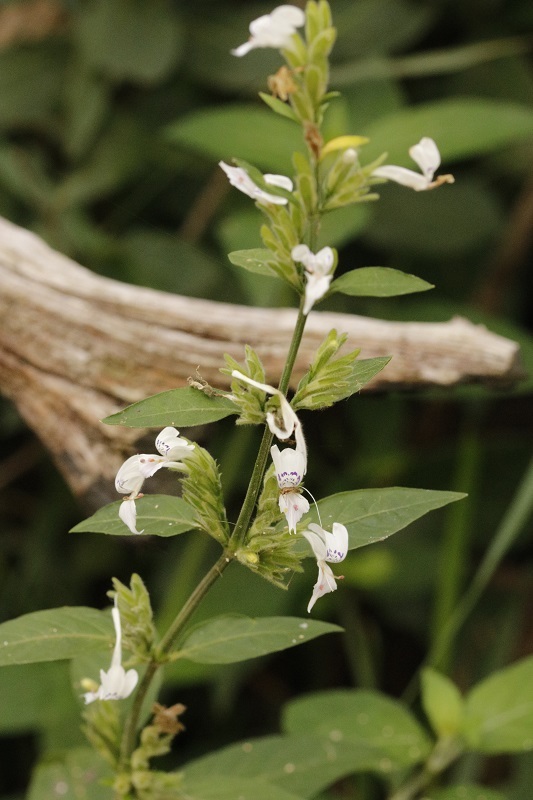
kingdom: Plantae
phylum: Tracheophyta
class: Magnoliopsida
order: Lamiales
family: Acanthaceae
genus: Hypoestes
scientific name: Hypoestes forskaolii
